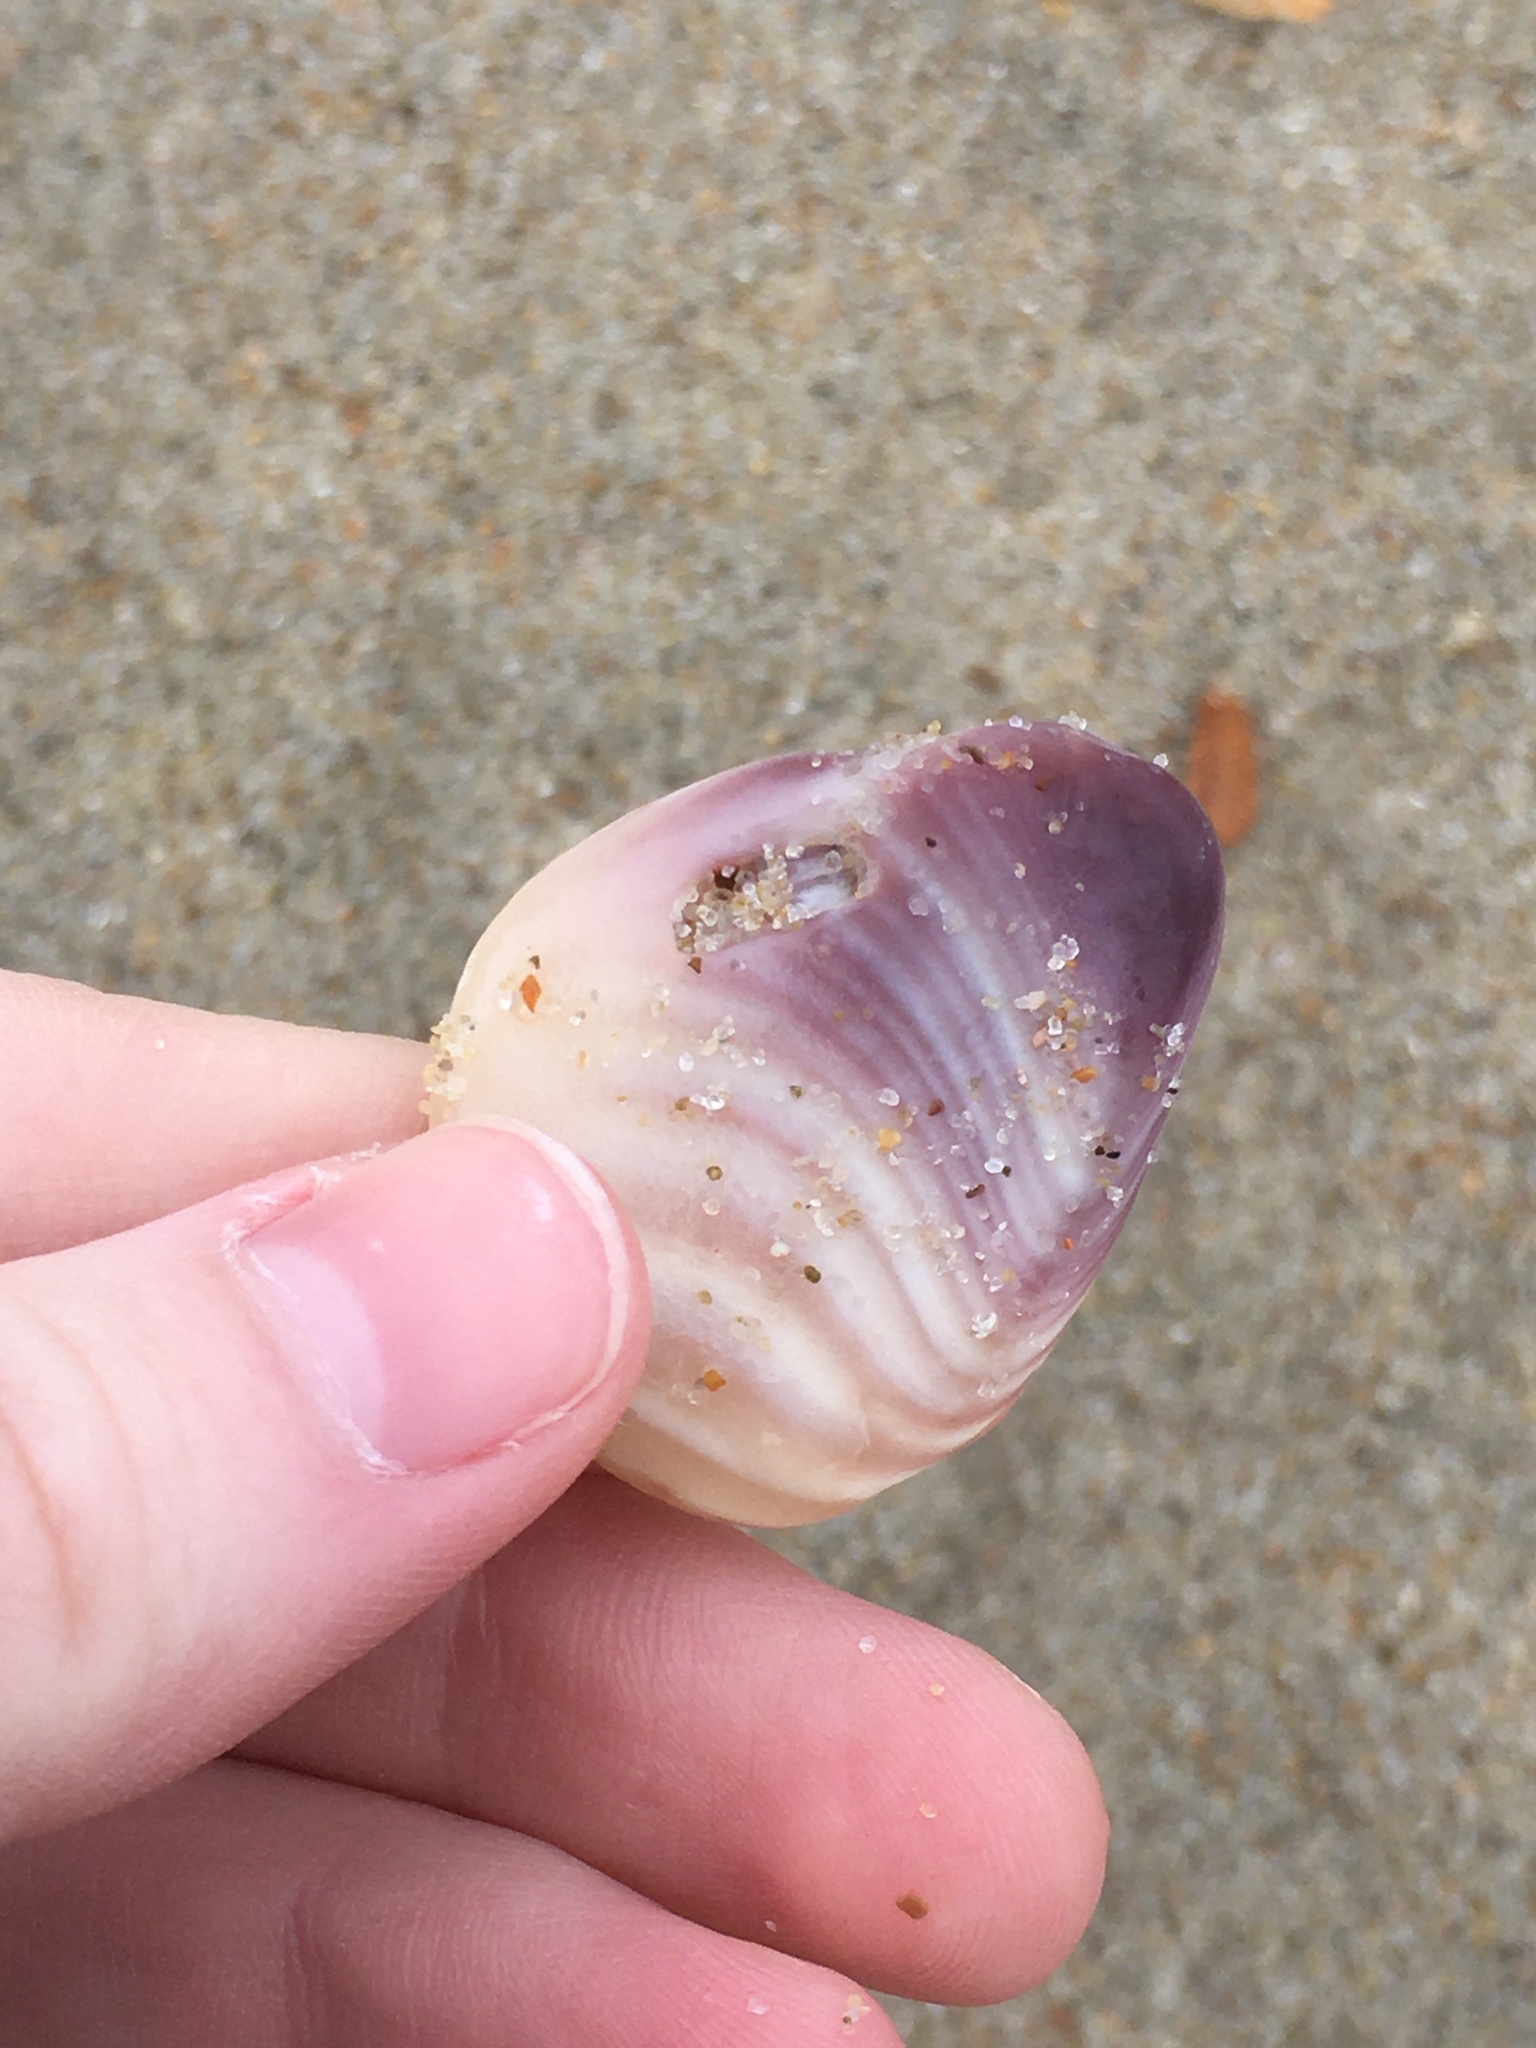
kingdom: Animalia
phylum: Mollusca
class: Bivalvia
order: Venerida
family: Veneridae
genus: Mercenaria
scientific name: Mercenaria mercenaria
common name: American hard-shelled clam
